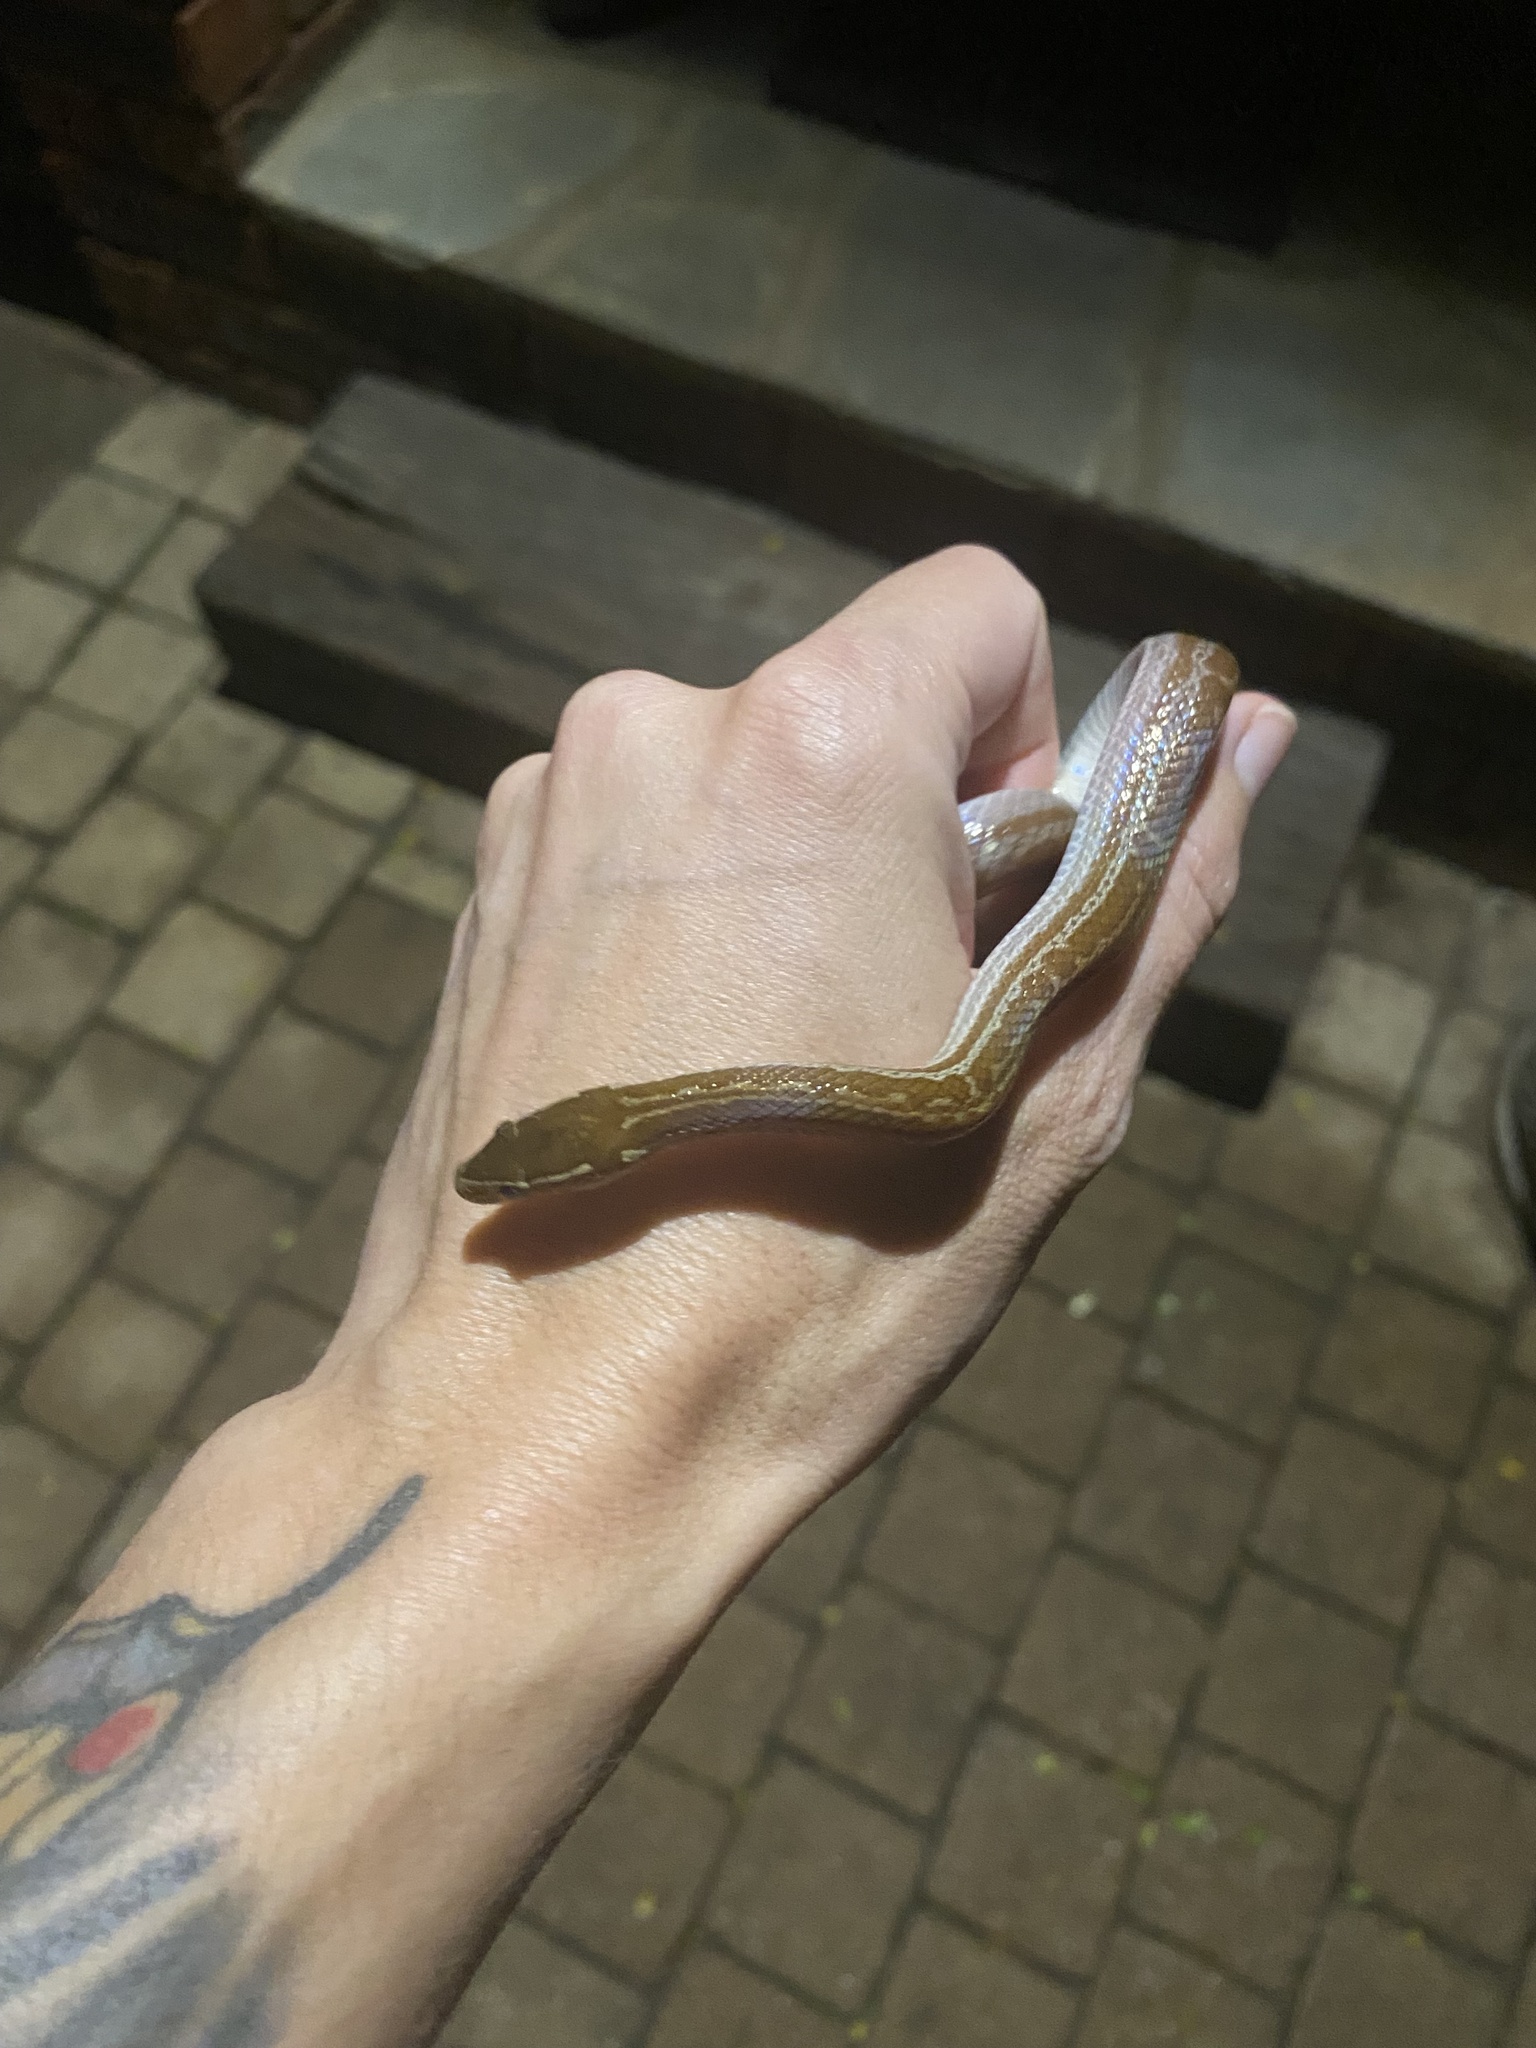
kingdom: Animalia
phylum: Chordata
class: Squamata
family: Lamprophiidae
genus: Boaedon
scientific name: Boaedon capensis
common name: Brown house snake
